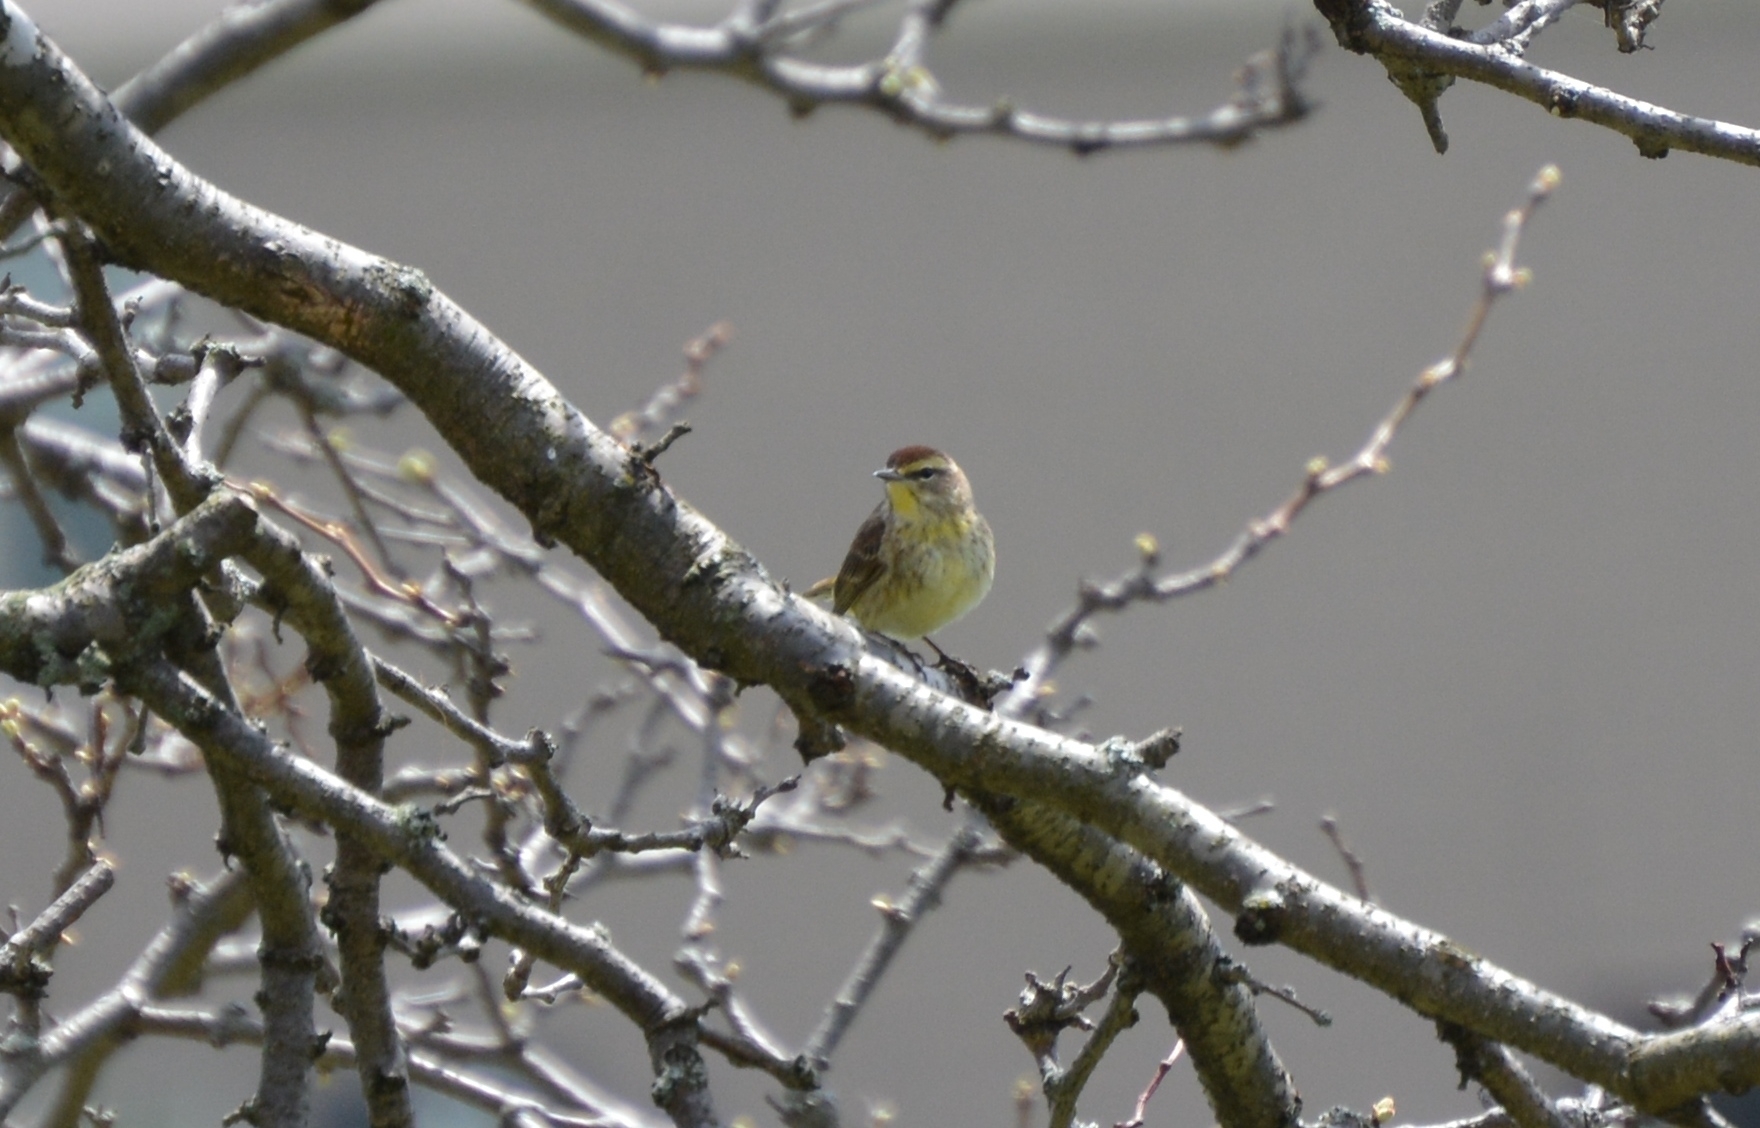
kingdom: Animalia
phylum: Chordata
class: Aves
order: Passeriformes
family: Parulidae
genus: Setophaga
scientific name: Setophaga palmarum
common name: Palm warbler
